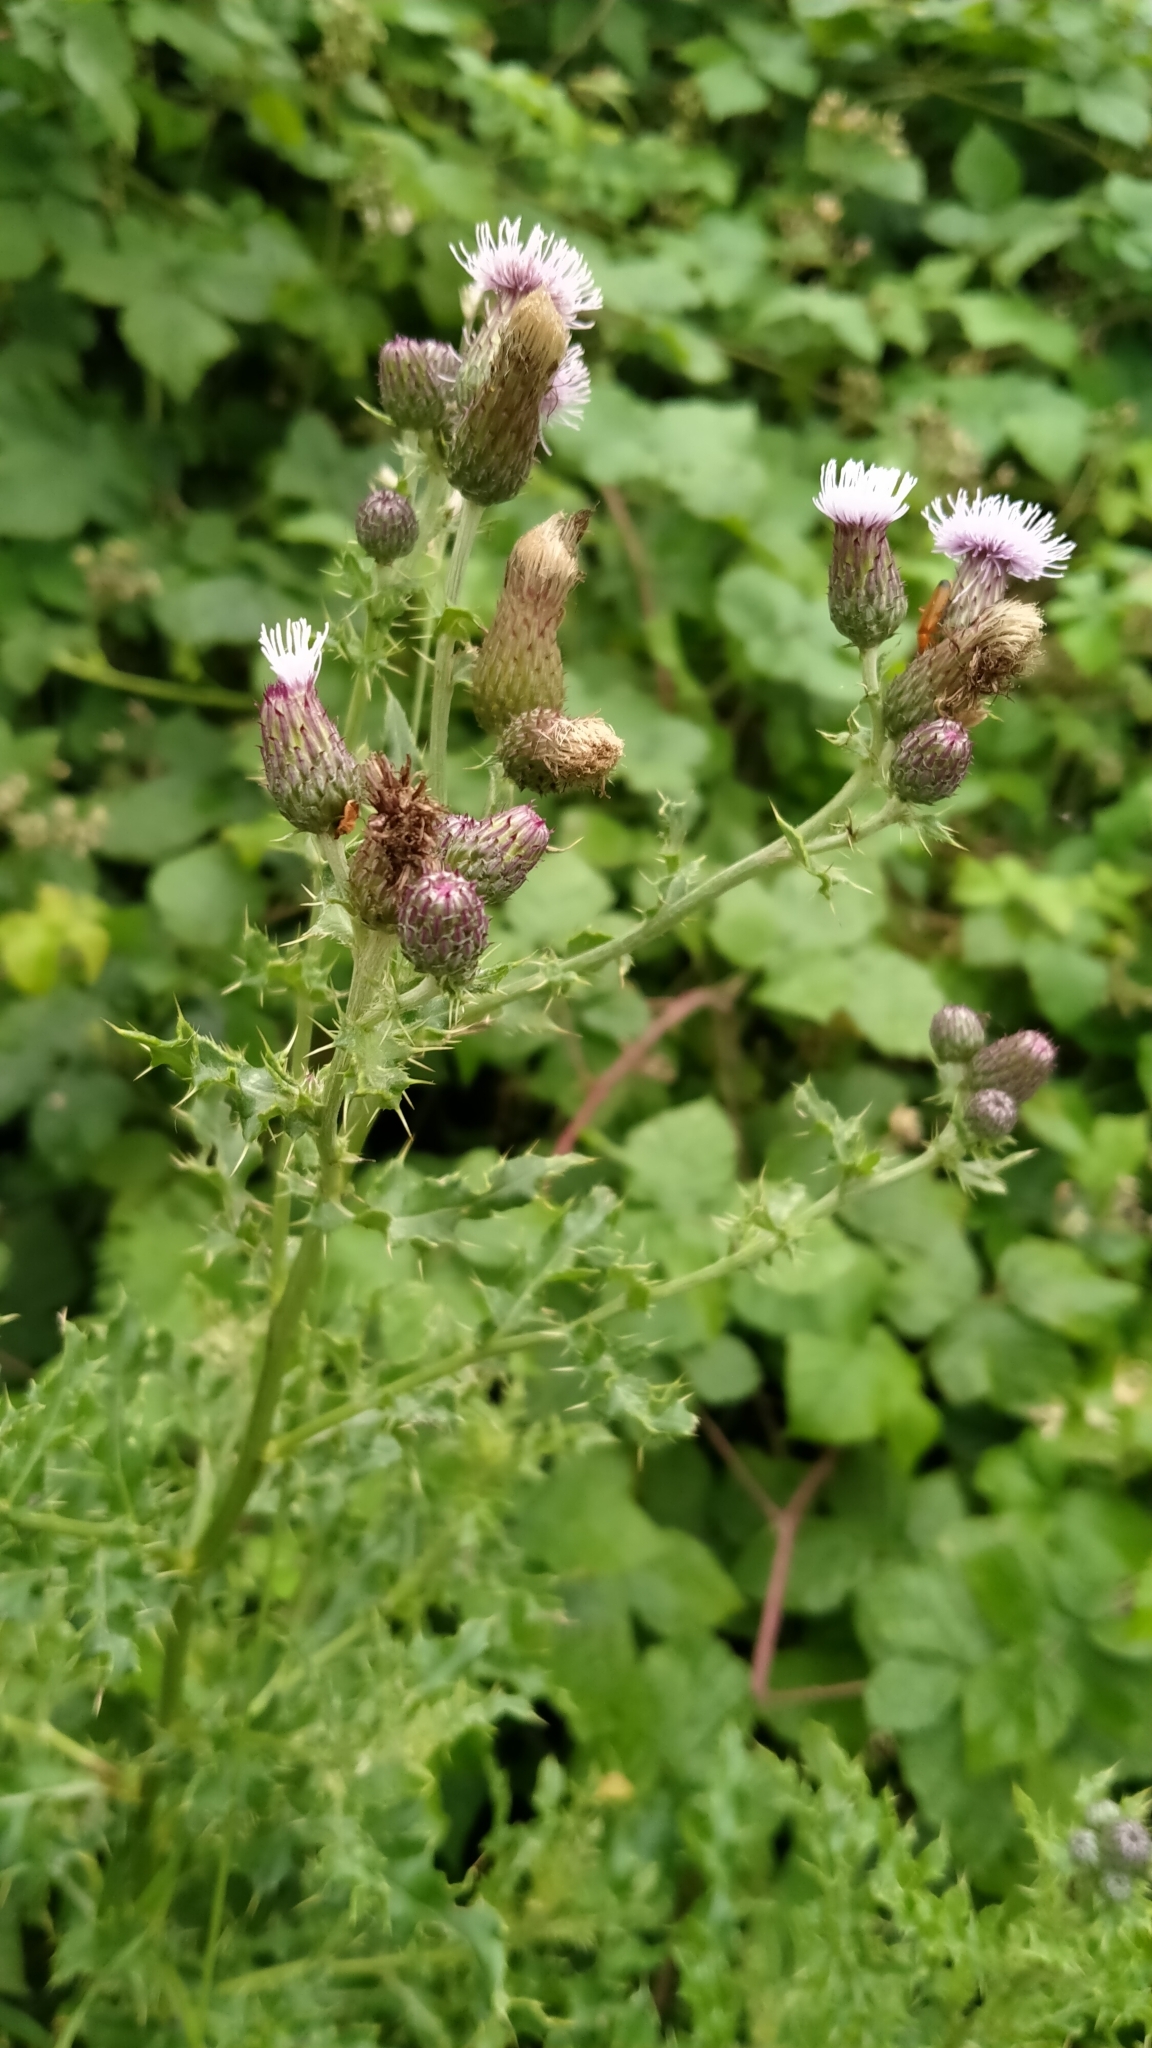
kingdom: Plantae
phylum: Tracheophyta
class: Magnoliopsida
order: Asterales
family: Asteraceae
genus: Cirsium
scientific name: Cirsium arvense
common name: Creeping thistle
